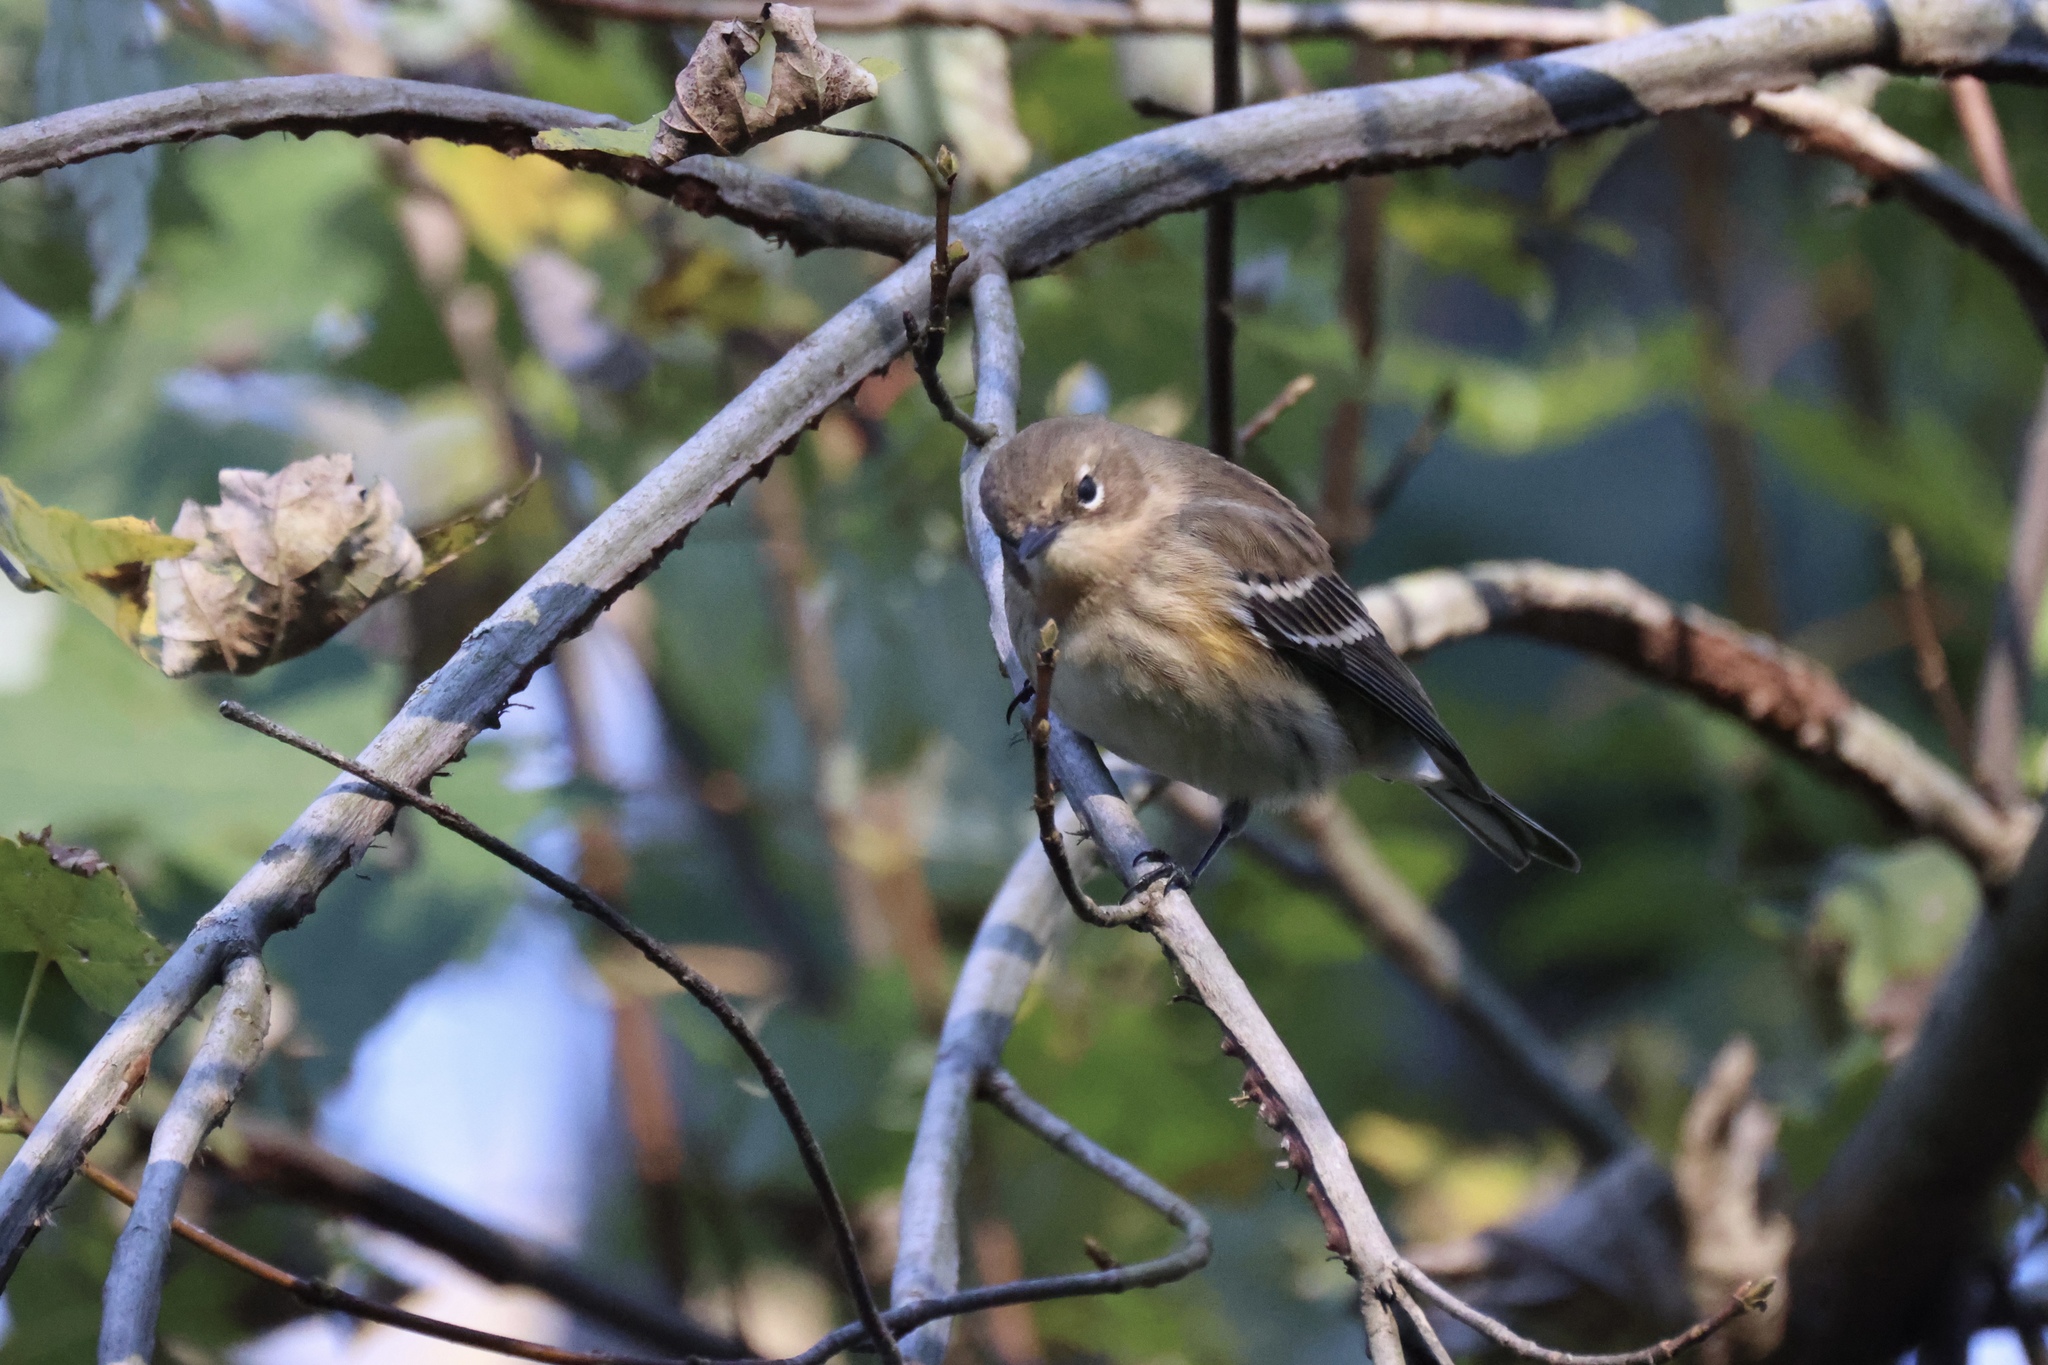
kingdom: Animalia
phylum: Chordata
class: Aves
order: Passeriformes
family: Parulidae
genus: Setophaga
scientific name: Setophaga coronata
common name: Myrtle warbler
